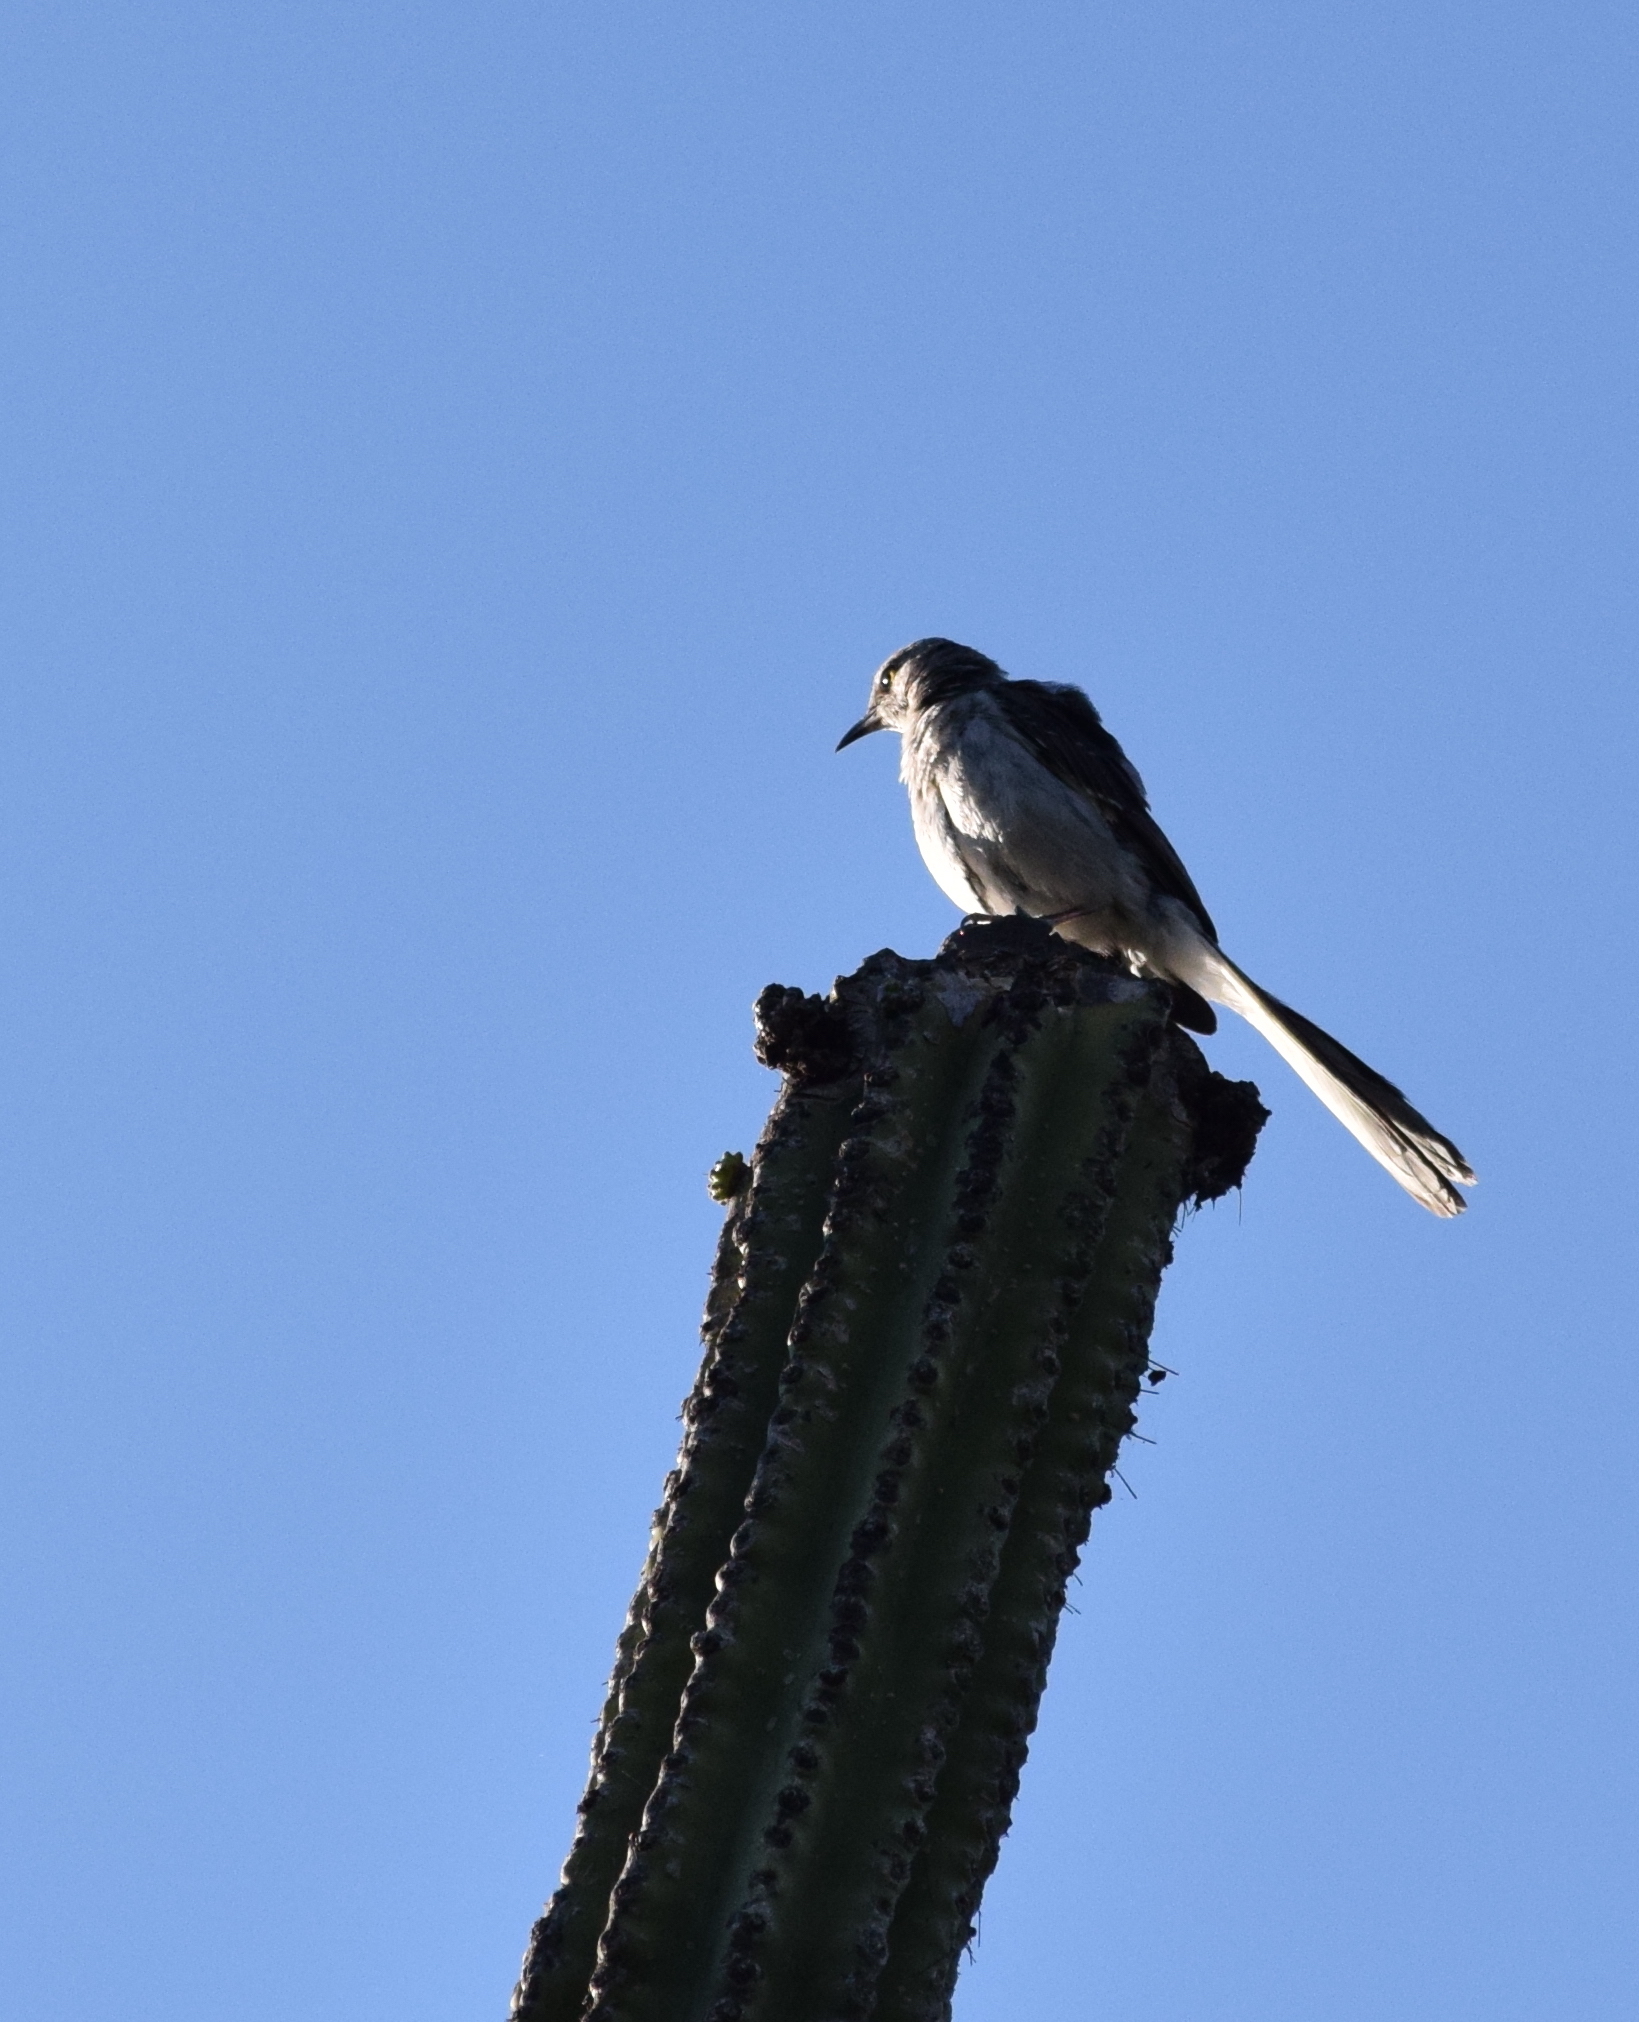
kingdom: Animalia
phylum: Chordata
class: Aves
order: Passeriformes
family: Mimidae
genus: Mimus
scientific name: Mimus polyglottos
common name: Northern mockingbird
